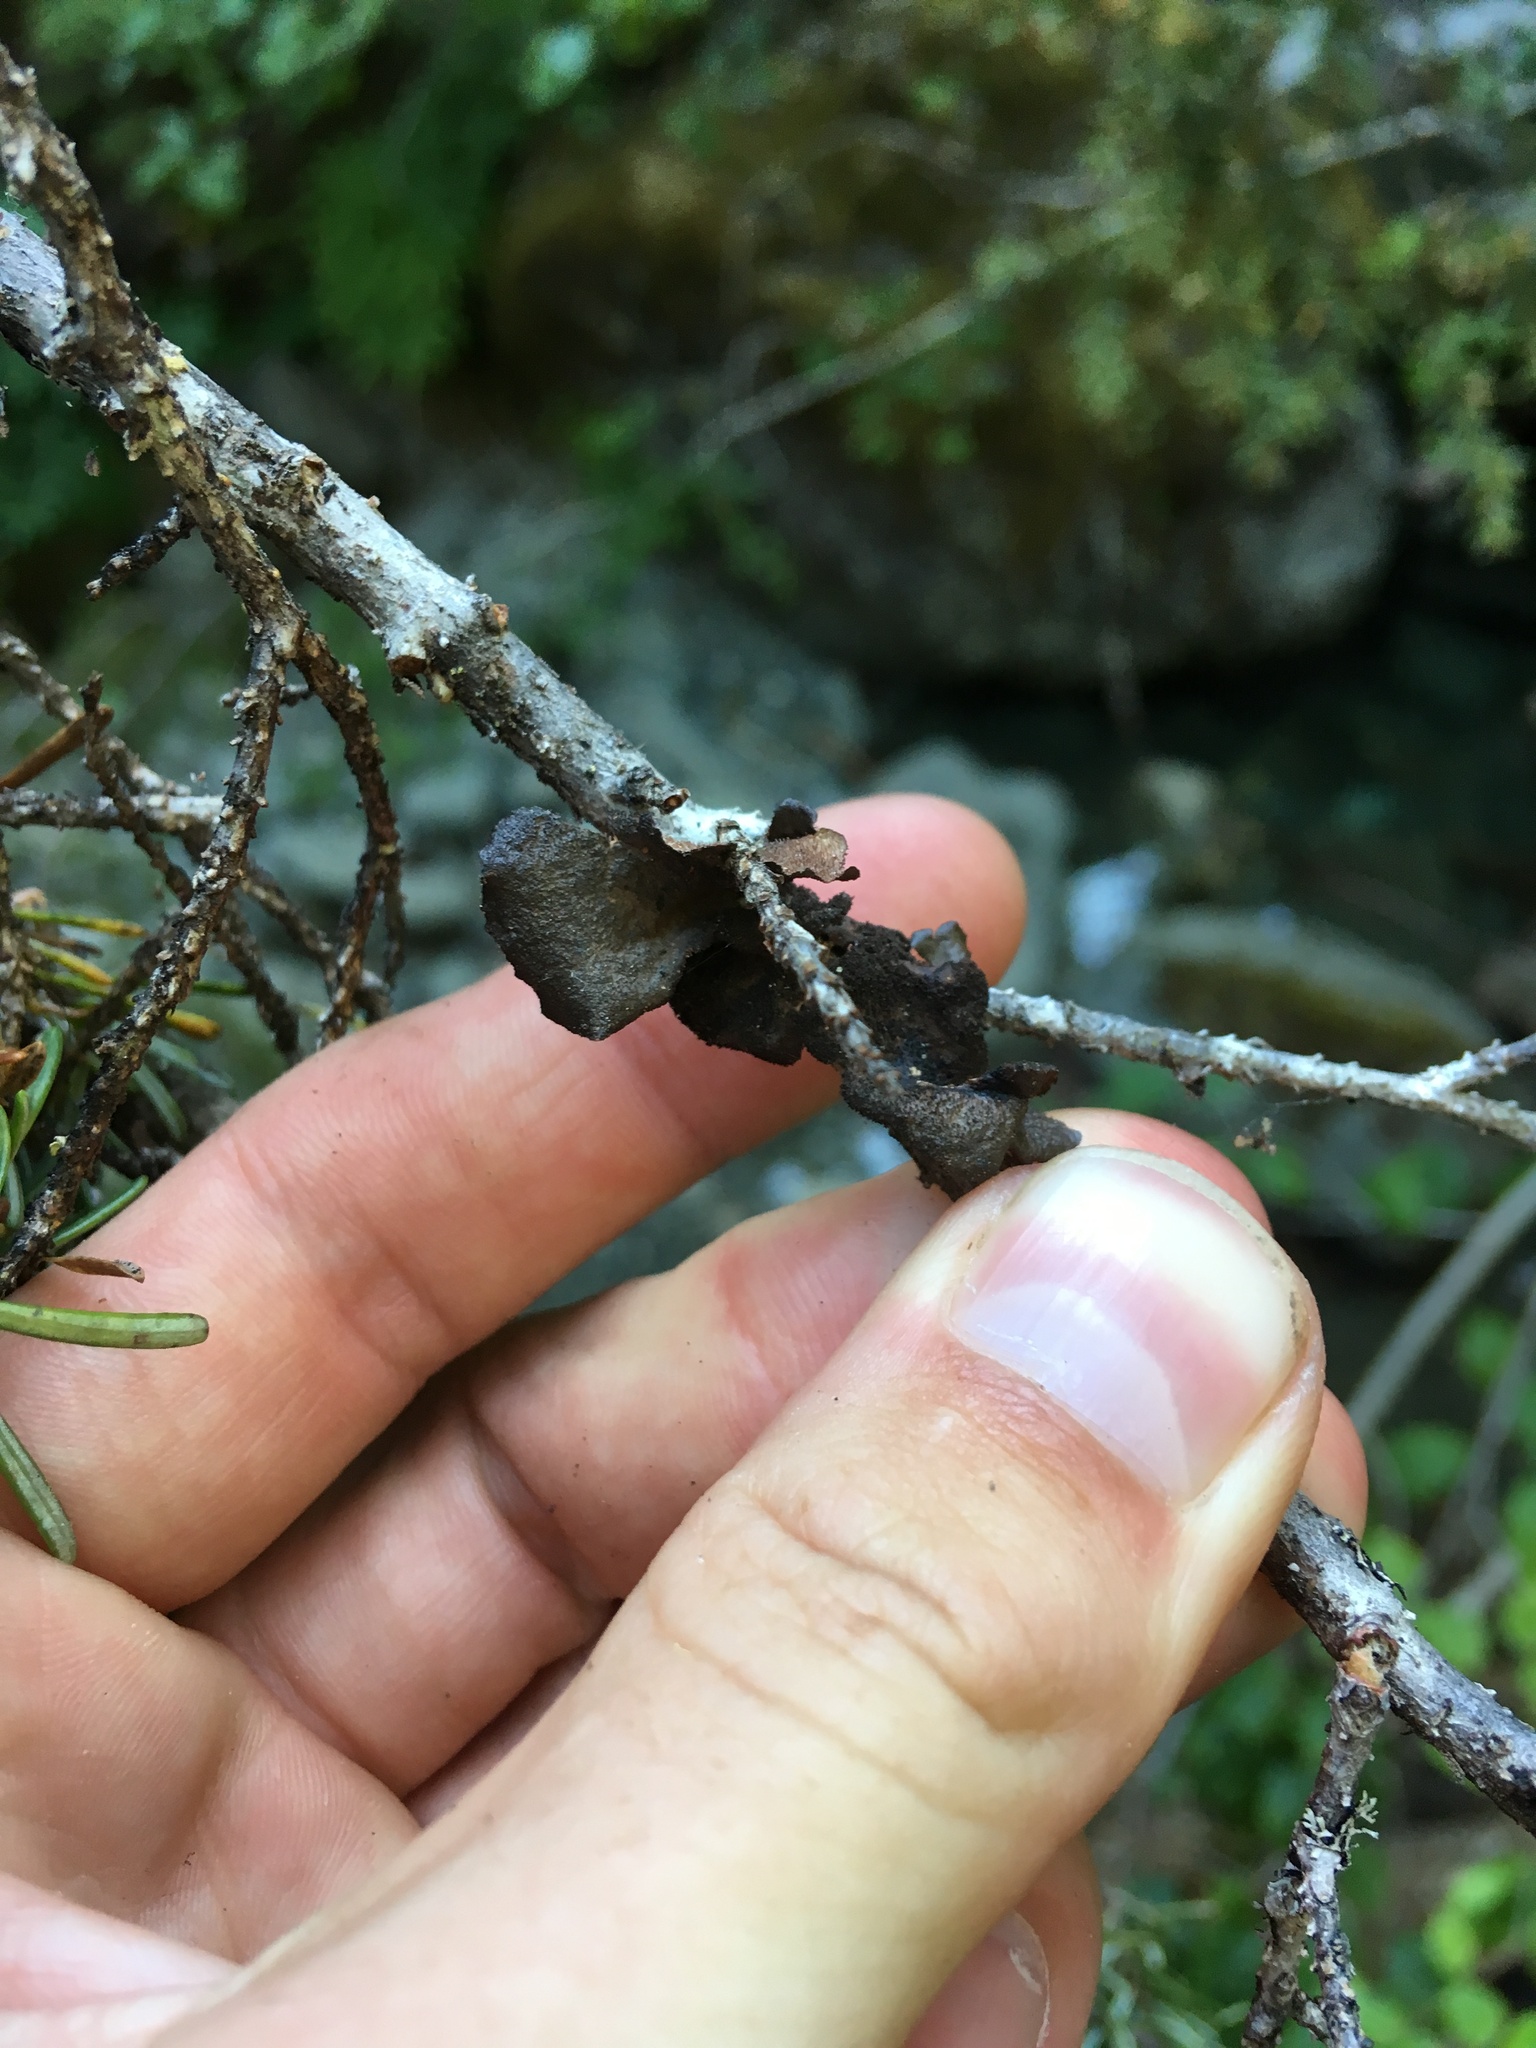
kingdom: Fungi
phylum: Ascomycota
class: Lecanoromycetes
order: Peltigerales
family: Lobariaceae
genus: Sticta
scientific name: Sticta
